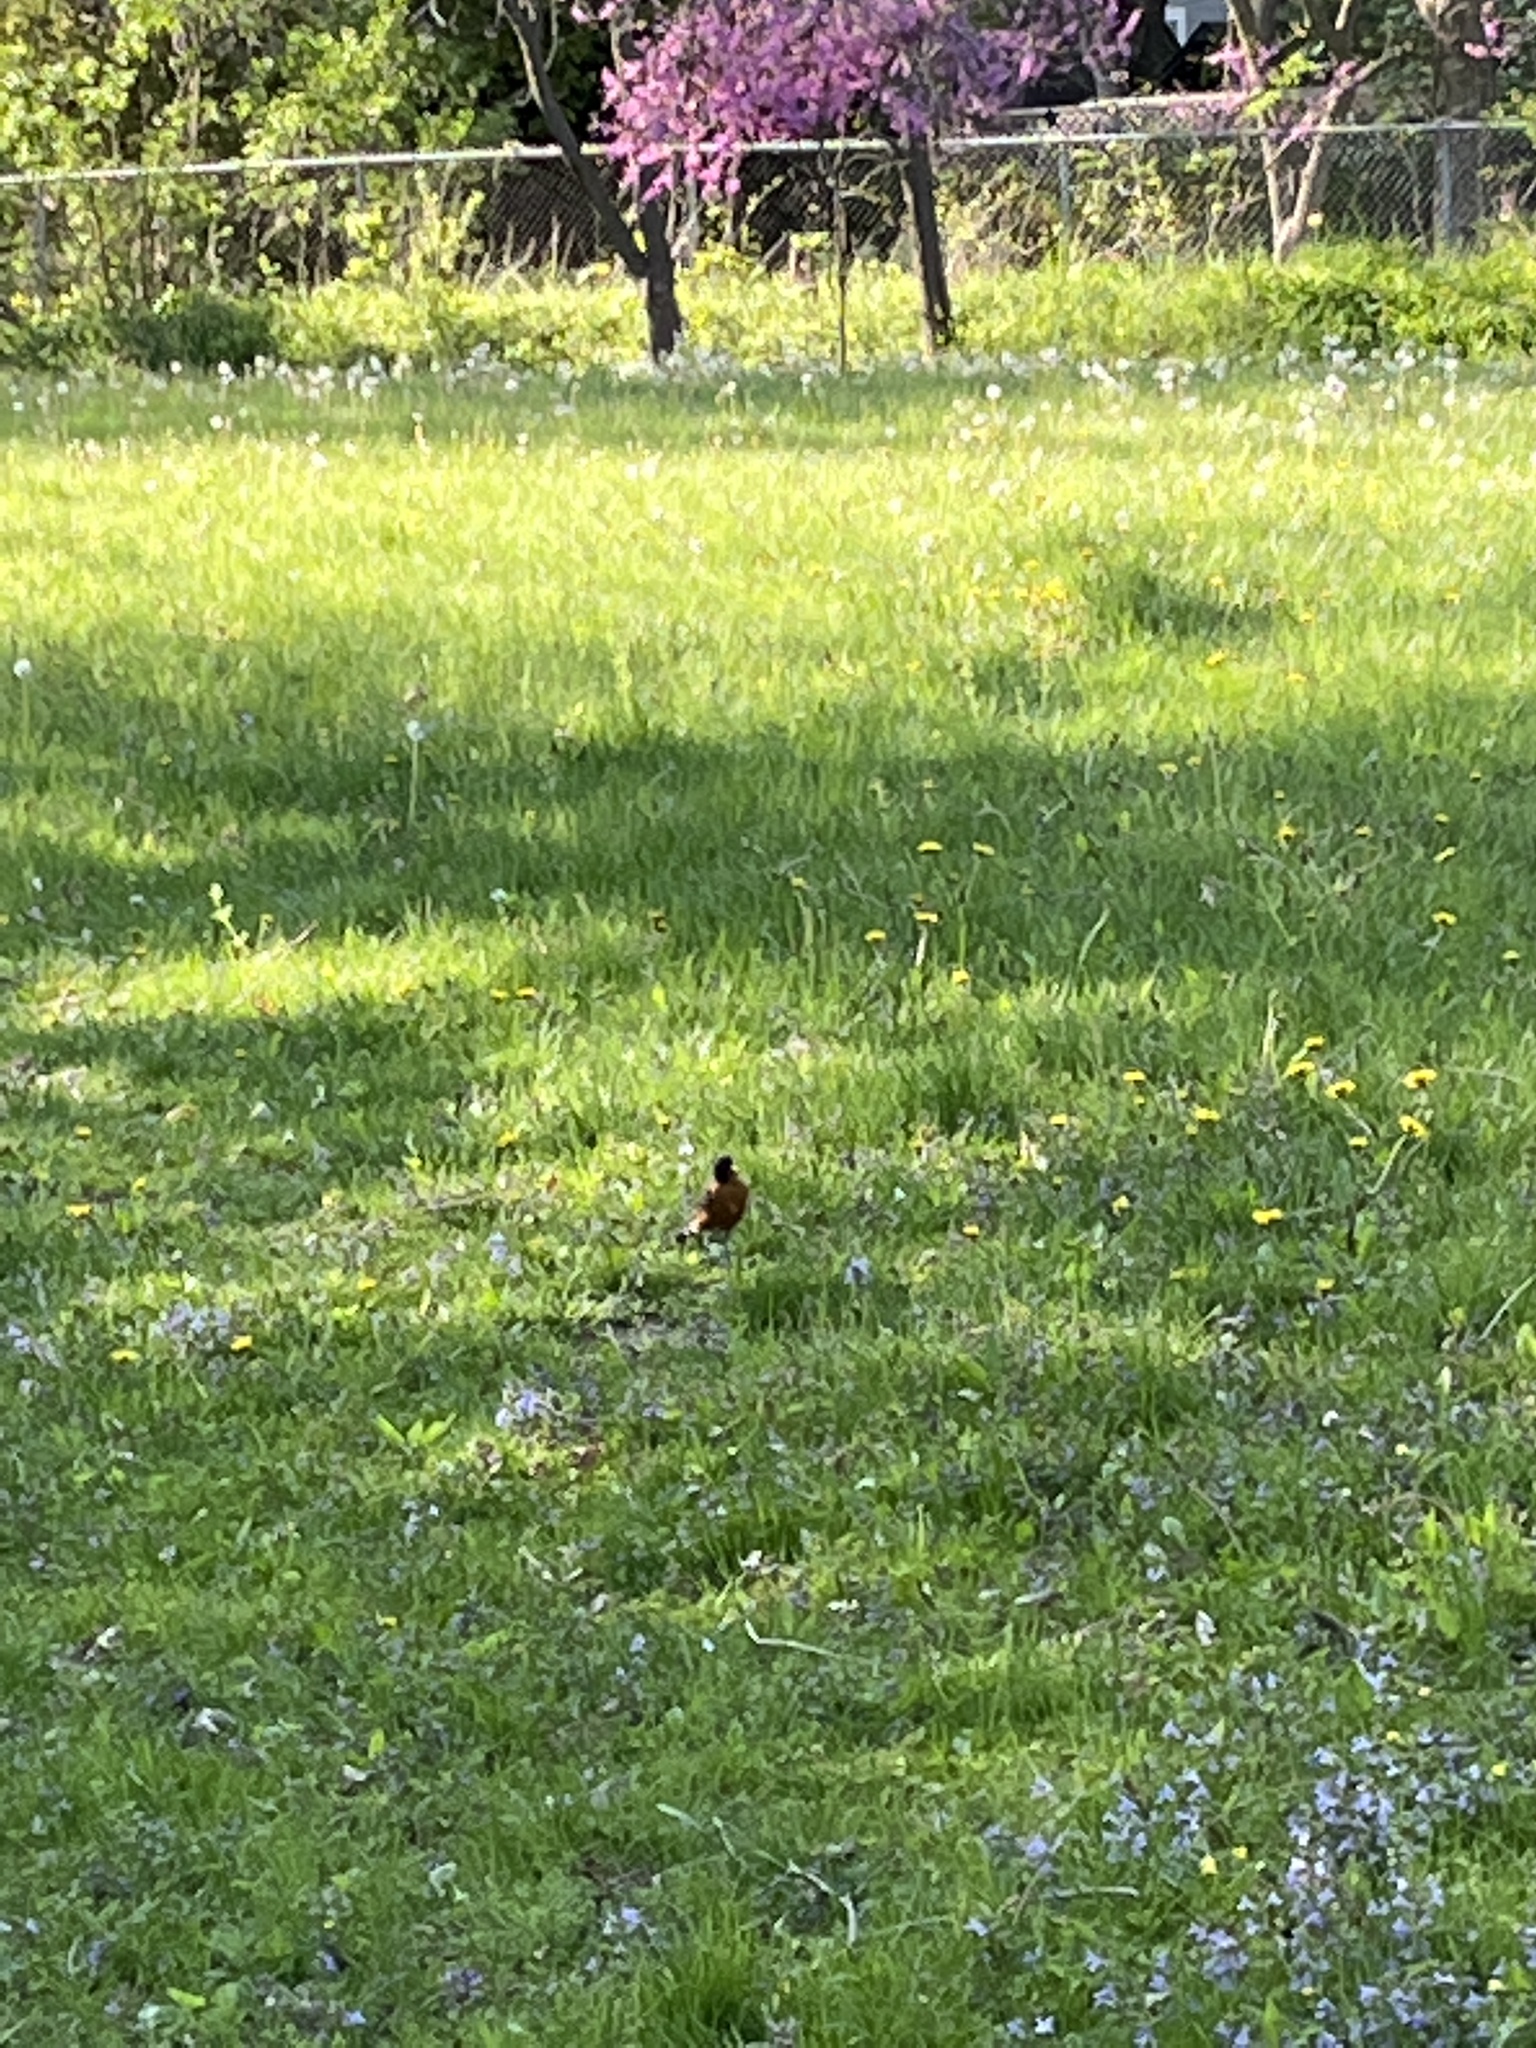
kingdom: Animalia
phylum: Chordata
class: Aves
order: Passeriformes
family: Turdidae
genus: Turdus
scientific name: Turdus migratorius
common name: American robin
